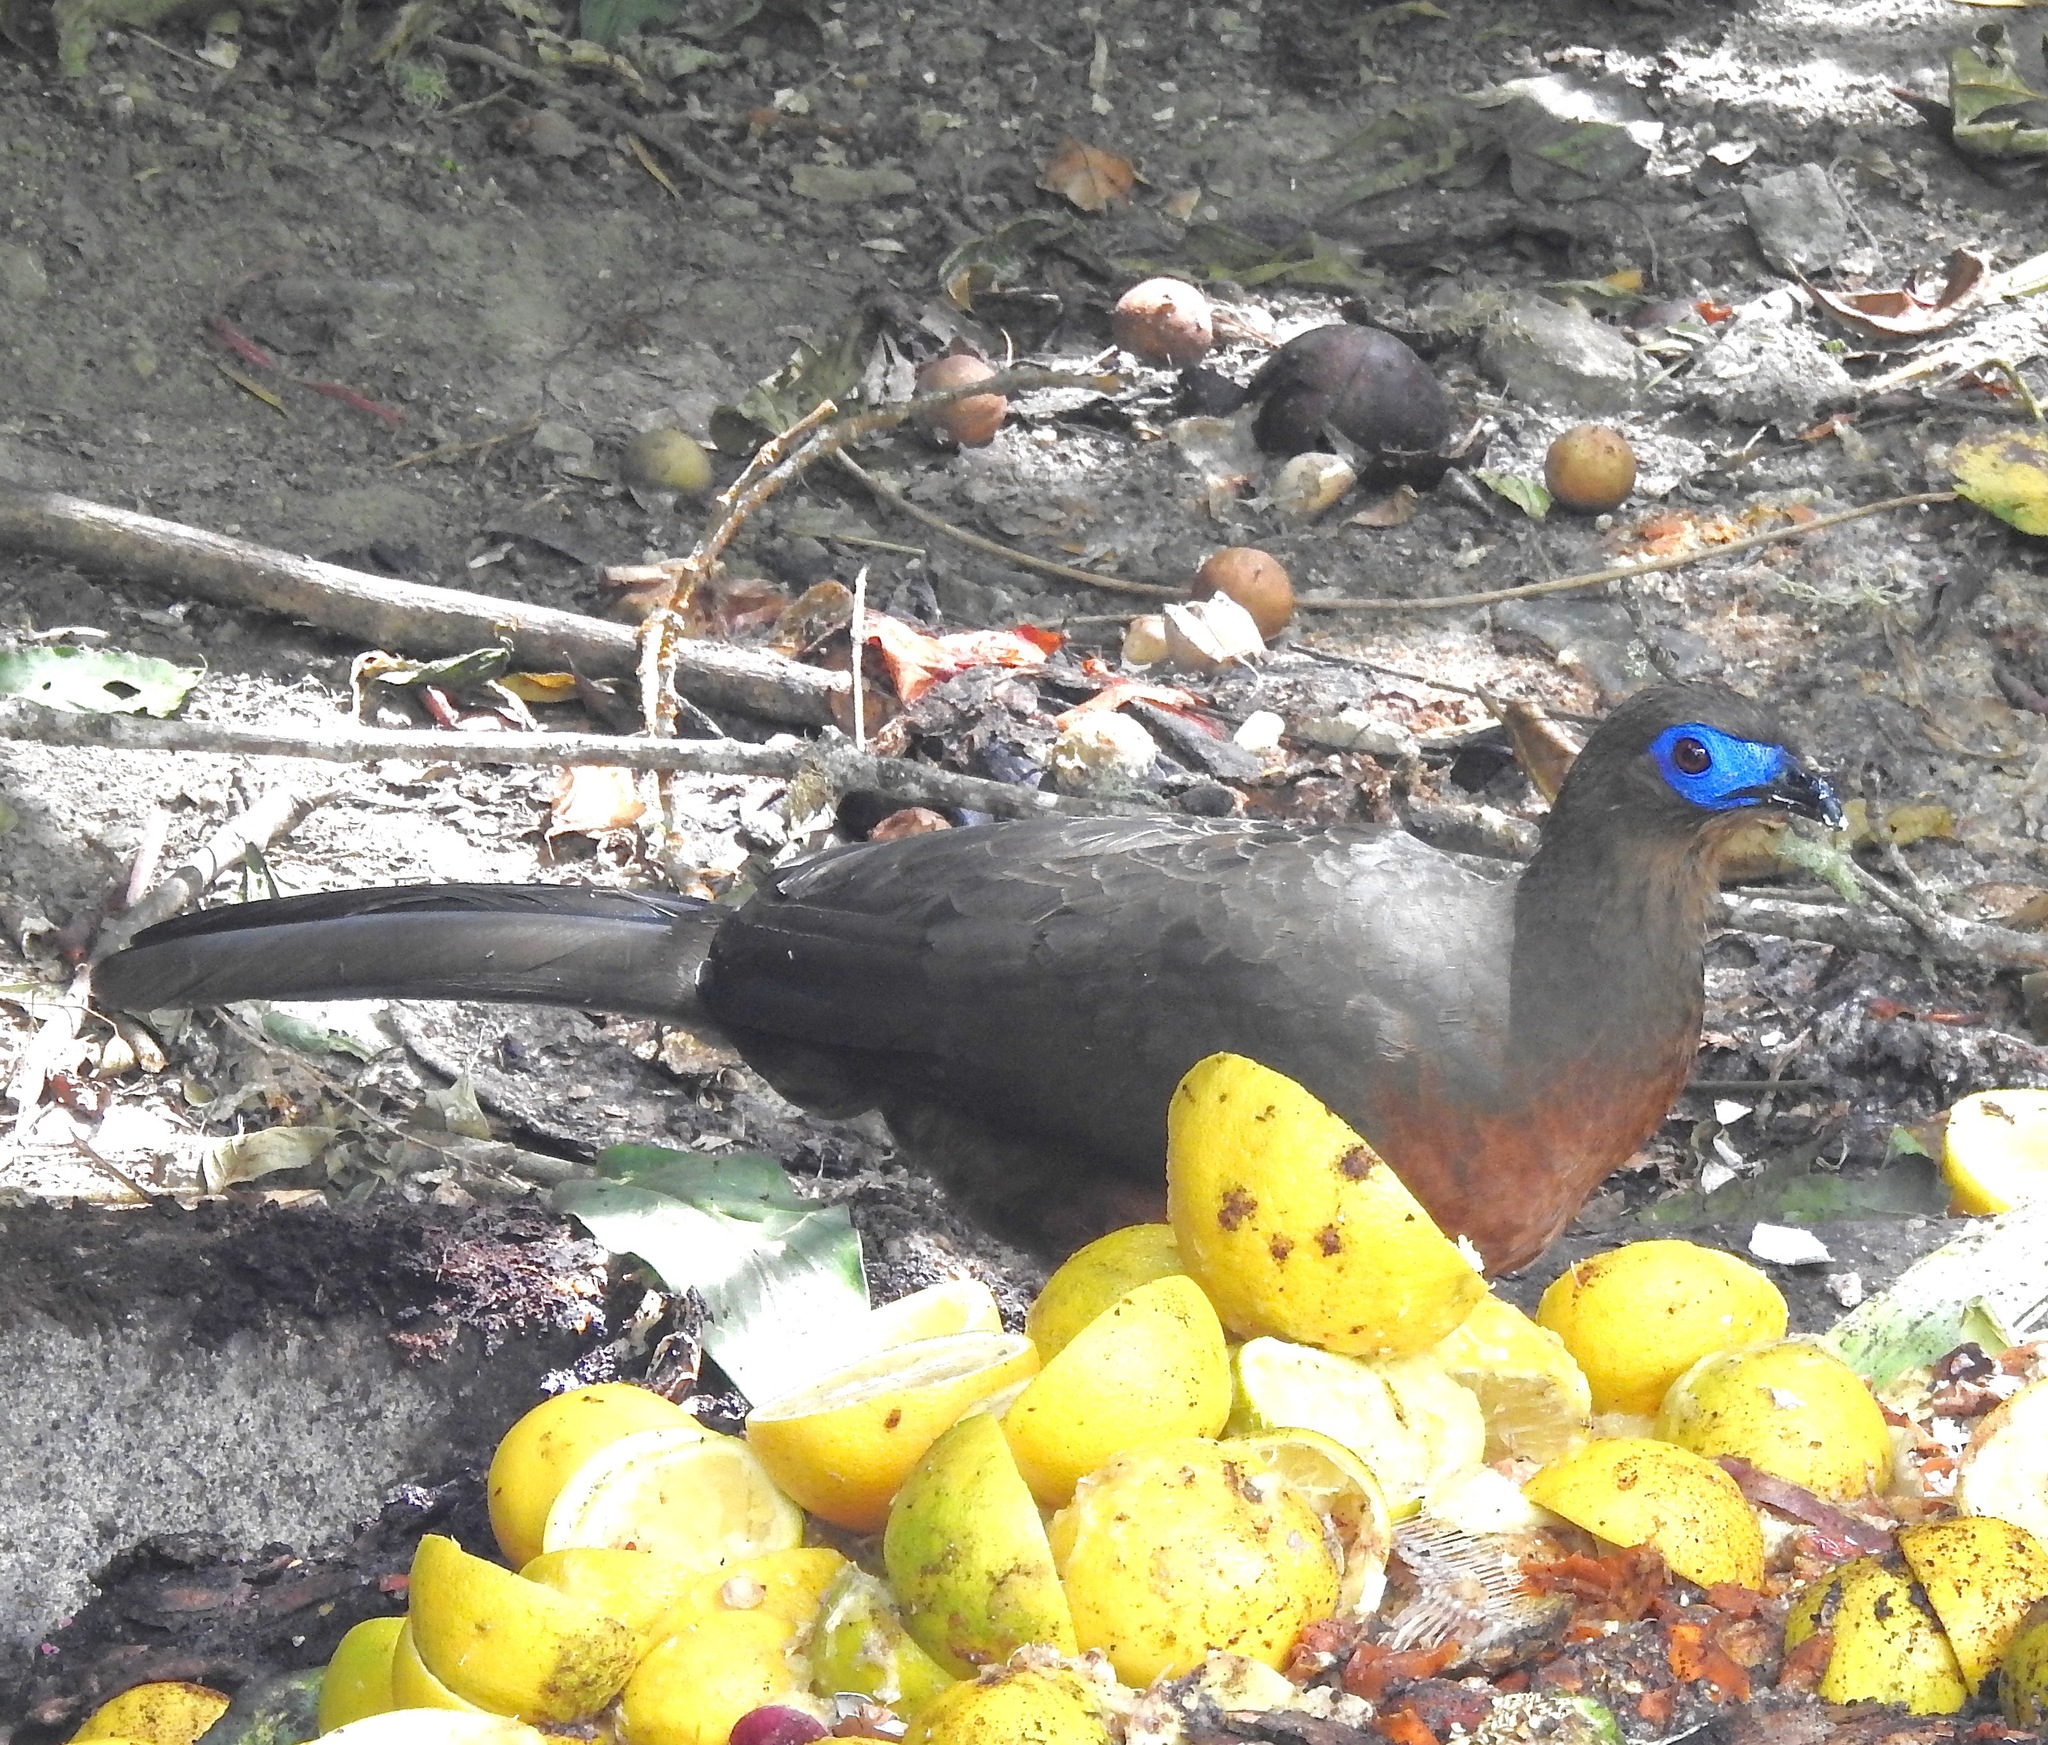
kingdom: Animalia
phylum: Chordata
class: Aves
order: Galliformes
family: Cracidae
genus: Chamaepetes
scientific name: Chamaepetes goudotii
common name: Sickle-winged guan
